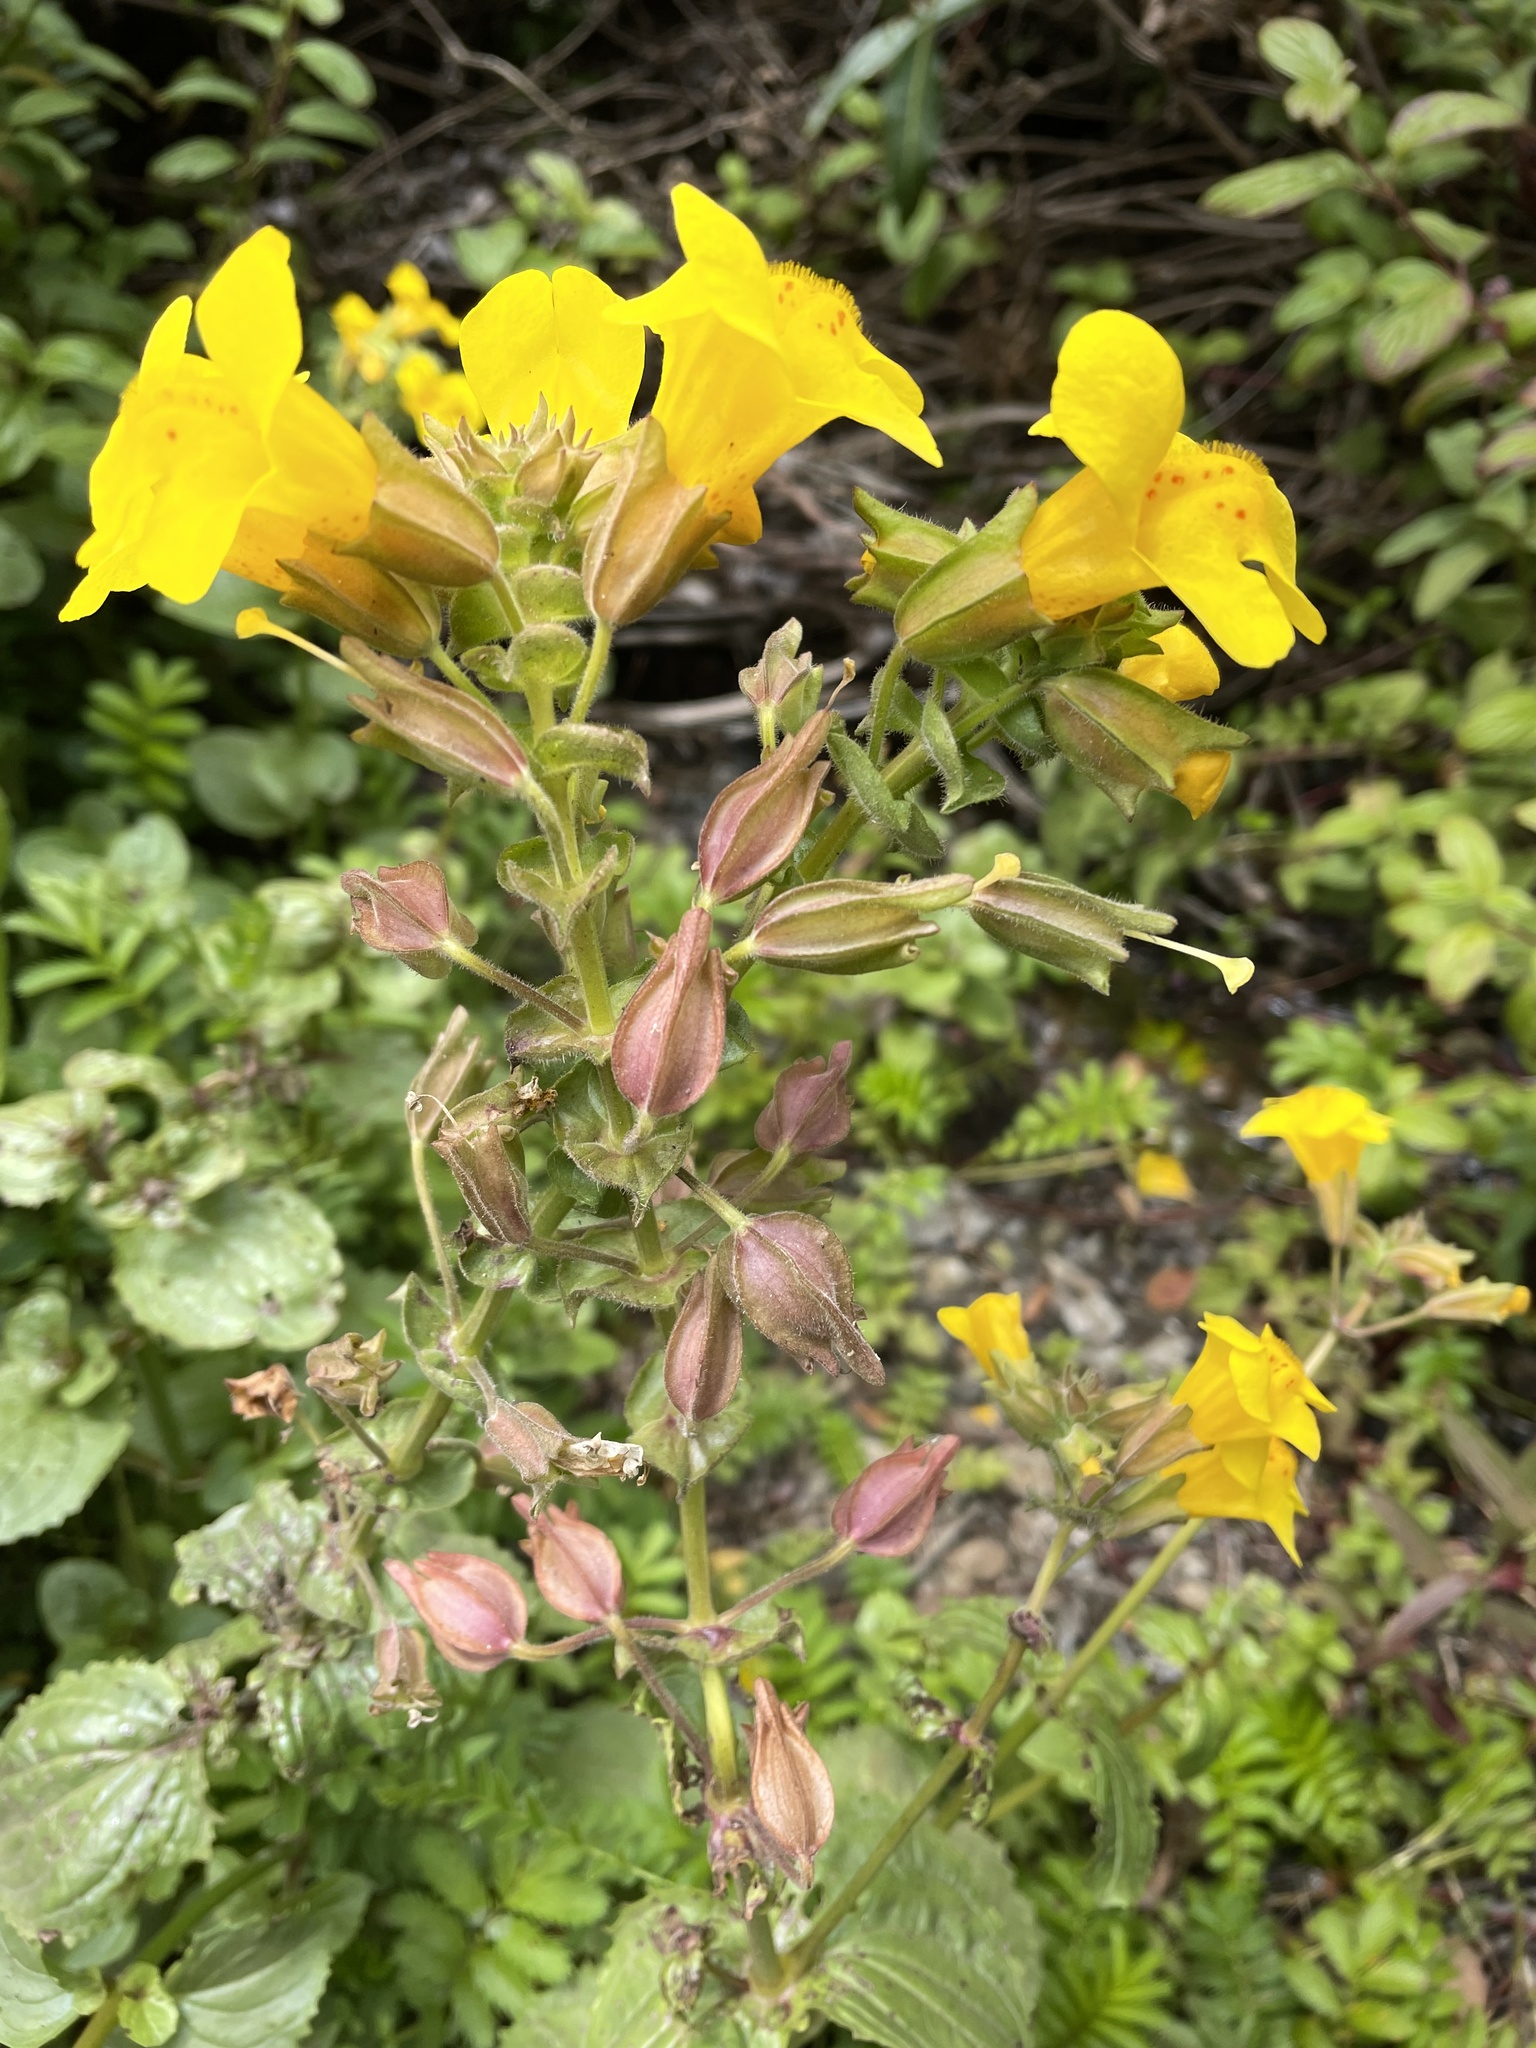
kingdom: Plantae
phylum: Tracheophyta
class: Magnoliopsida
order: Lamiales
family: Phrymaceae
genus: Erythranthe
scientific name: Erythranthe grandis
